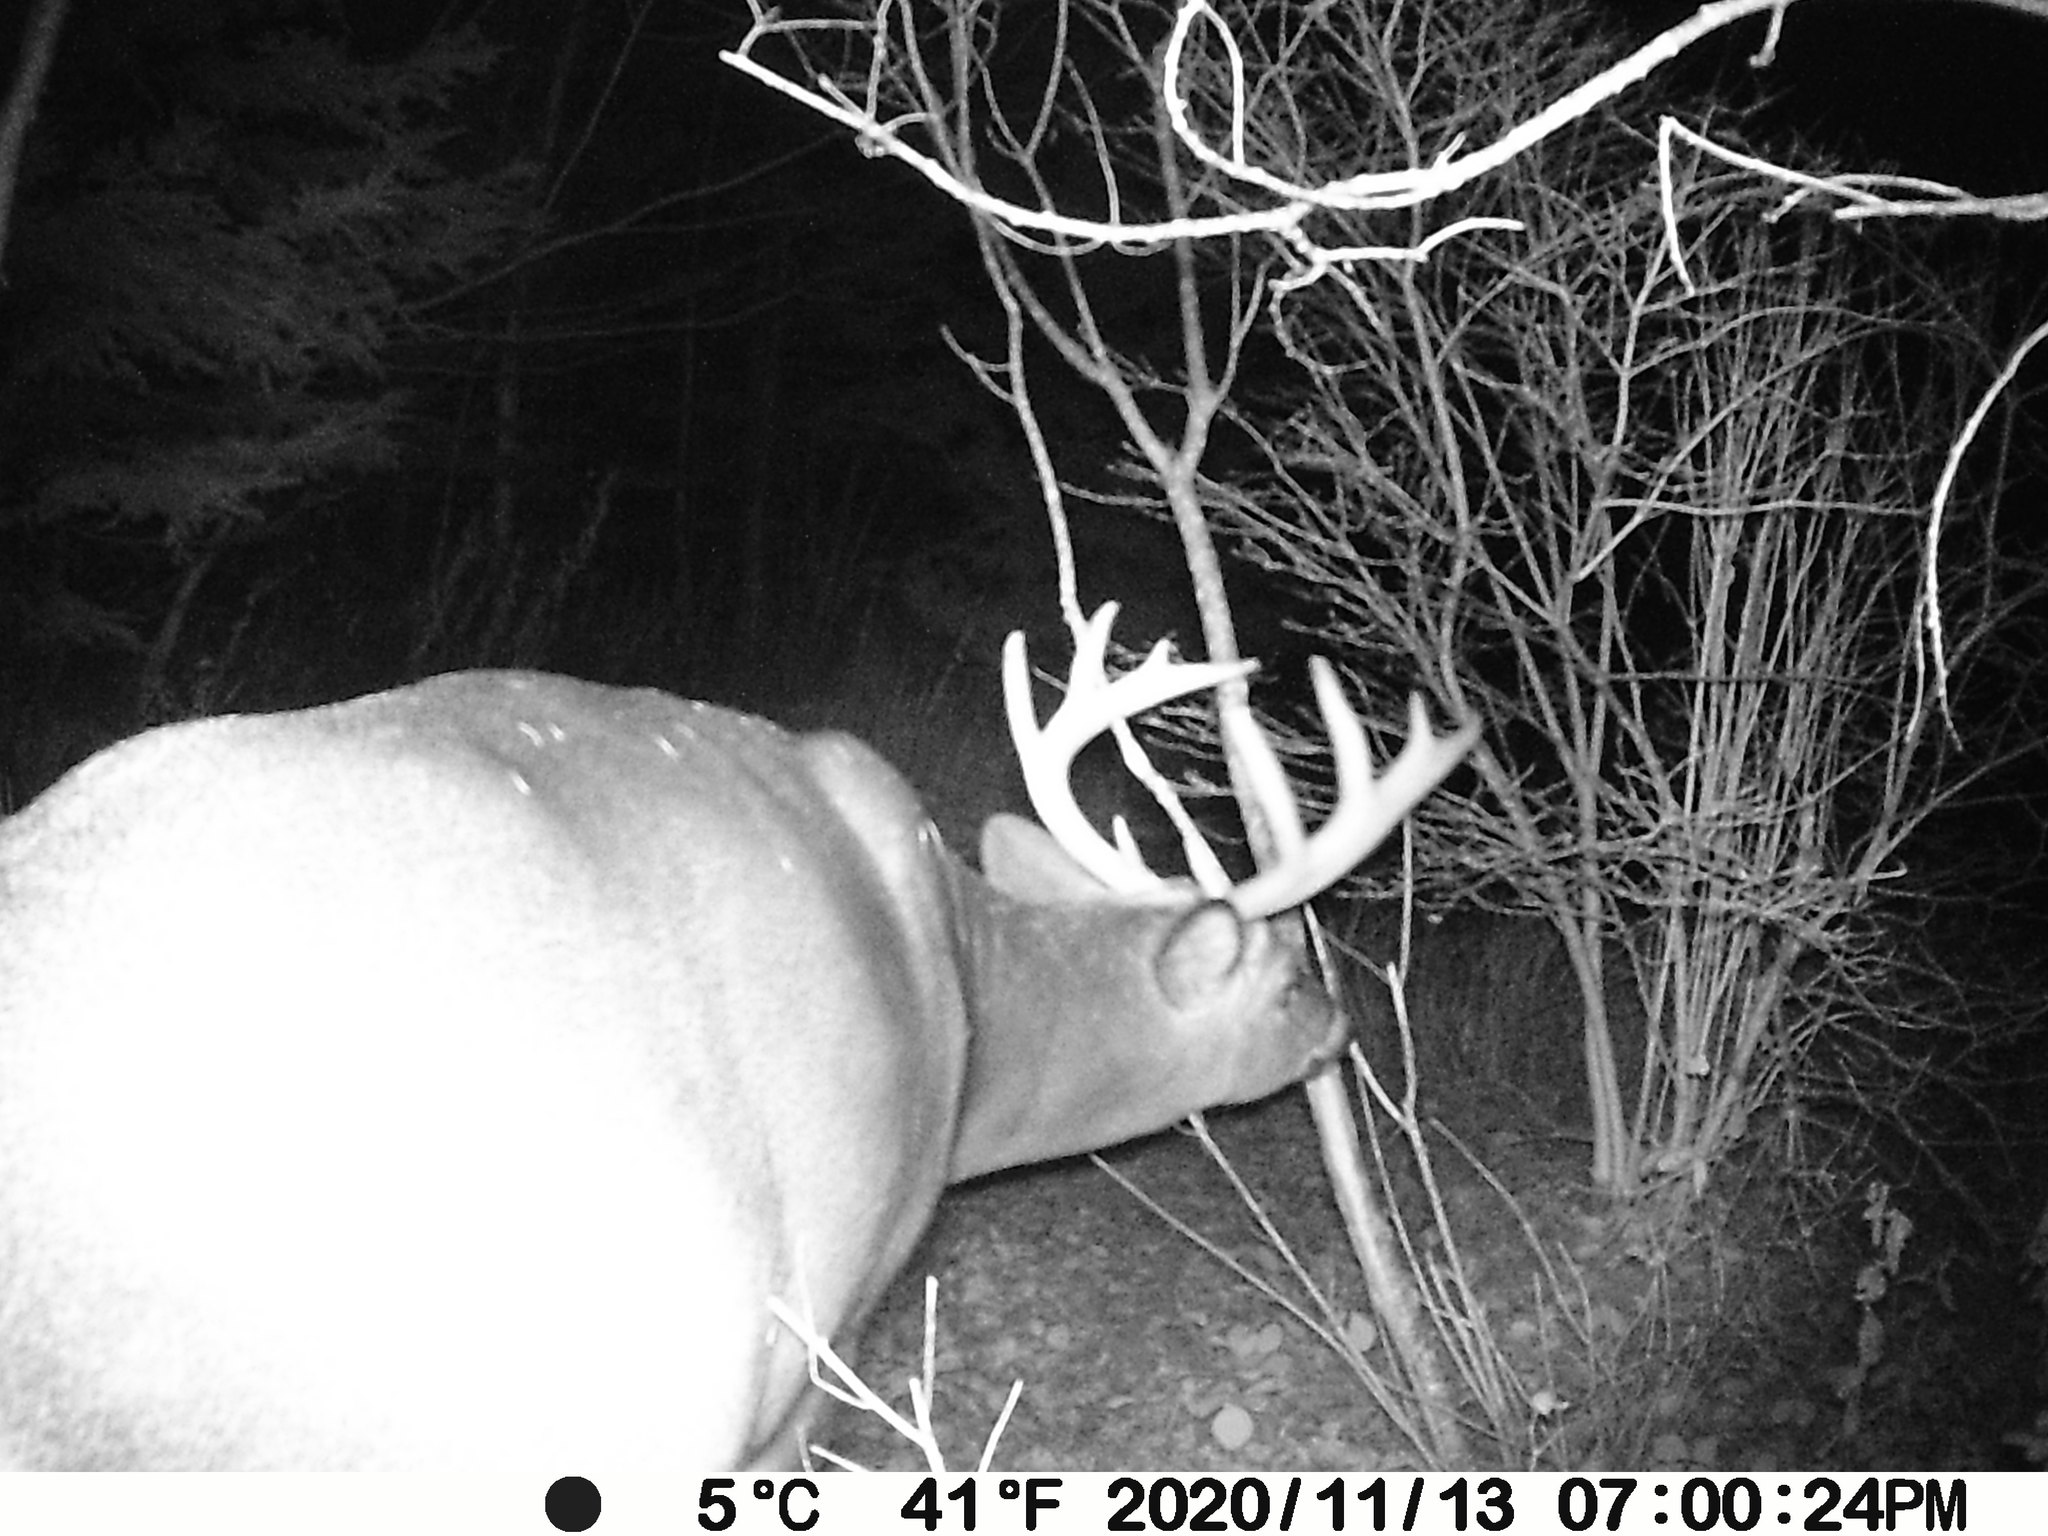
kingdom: Animalia
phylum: Chordata
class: Mammalia
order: Artiodactyla
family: Cervidae
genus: Odocoileus
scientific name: Odocoileus virginianus
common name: White-tailed deer
